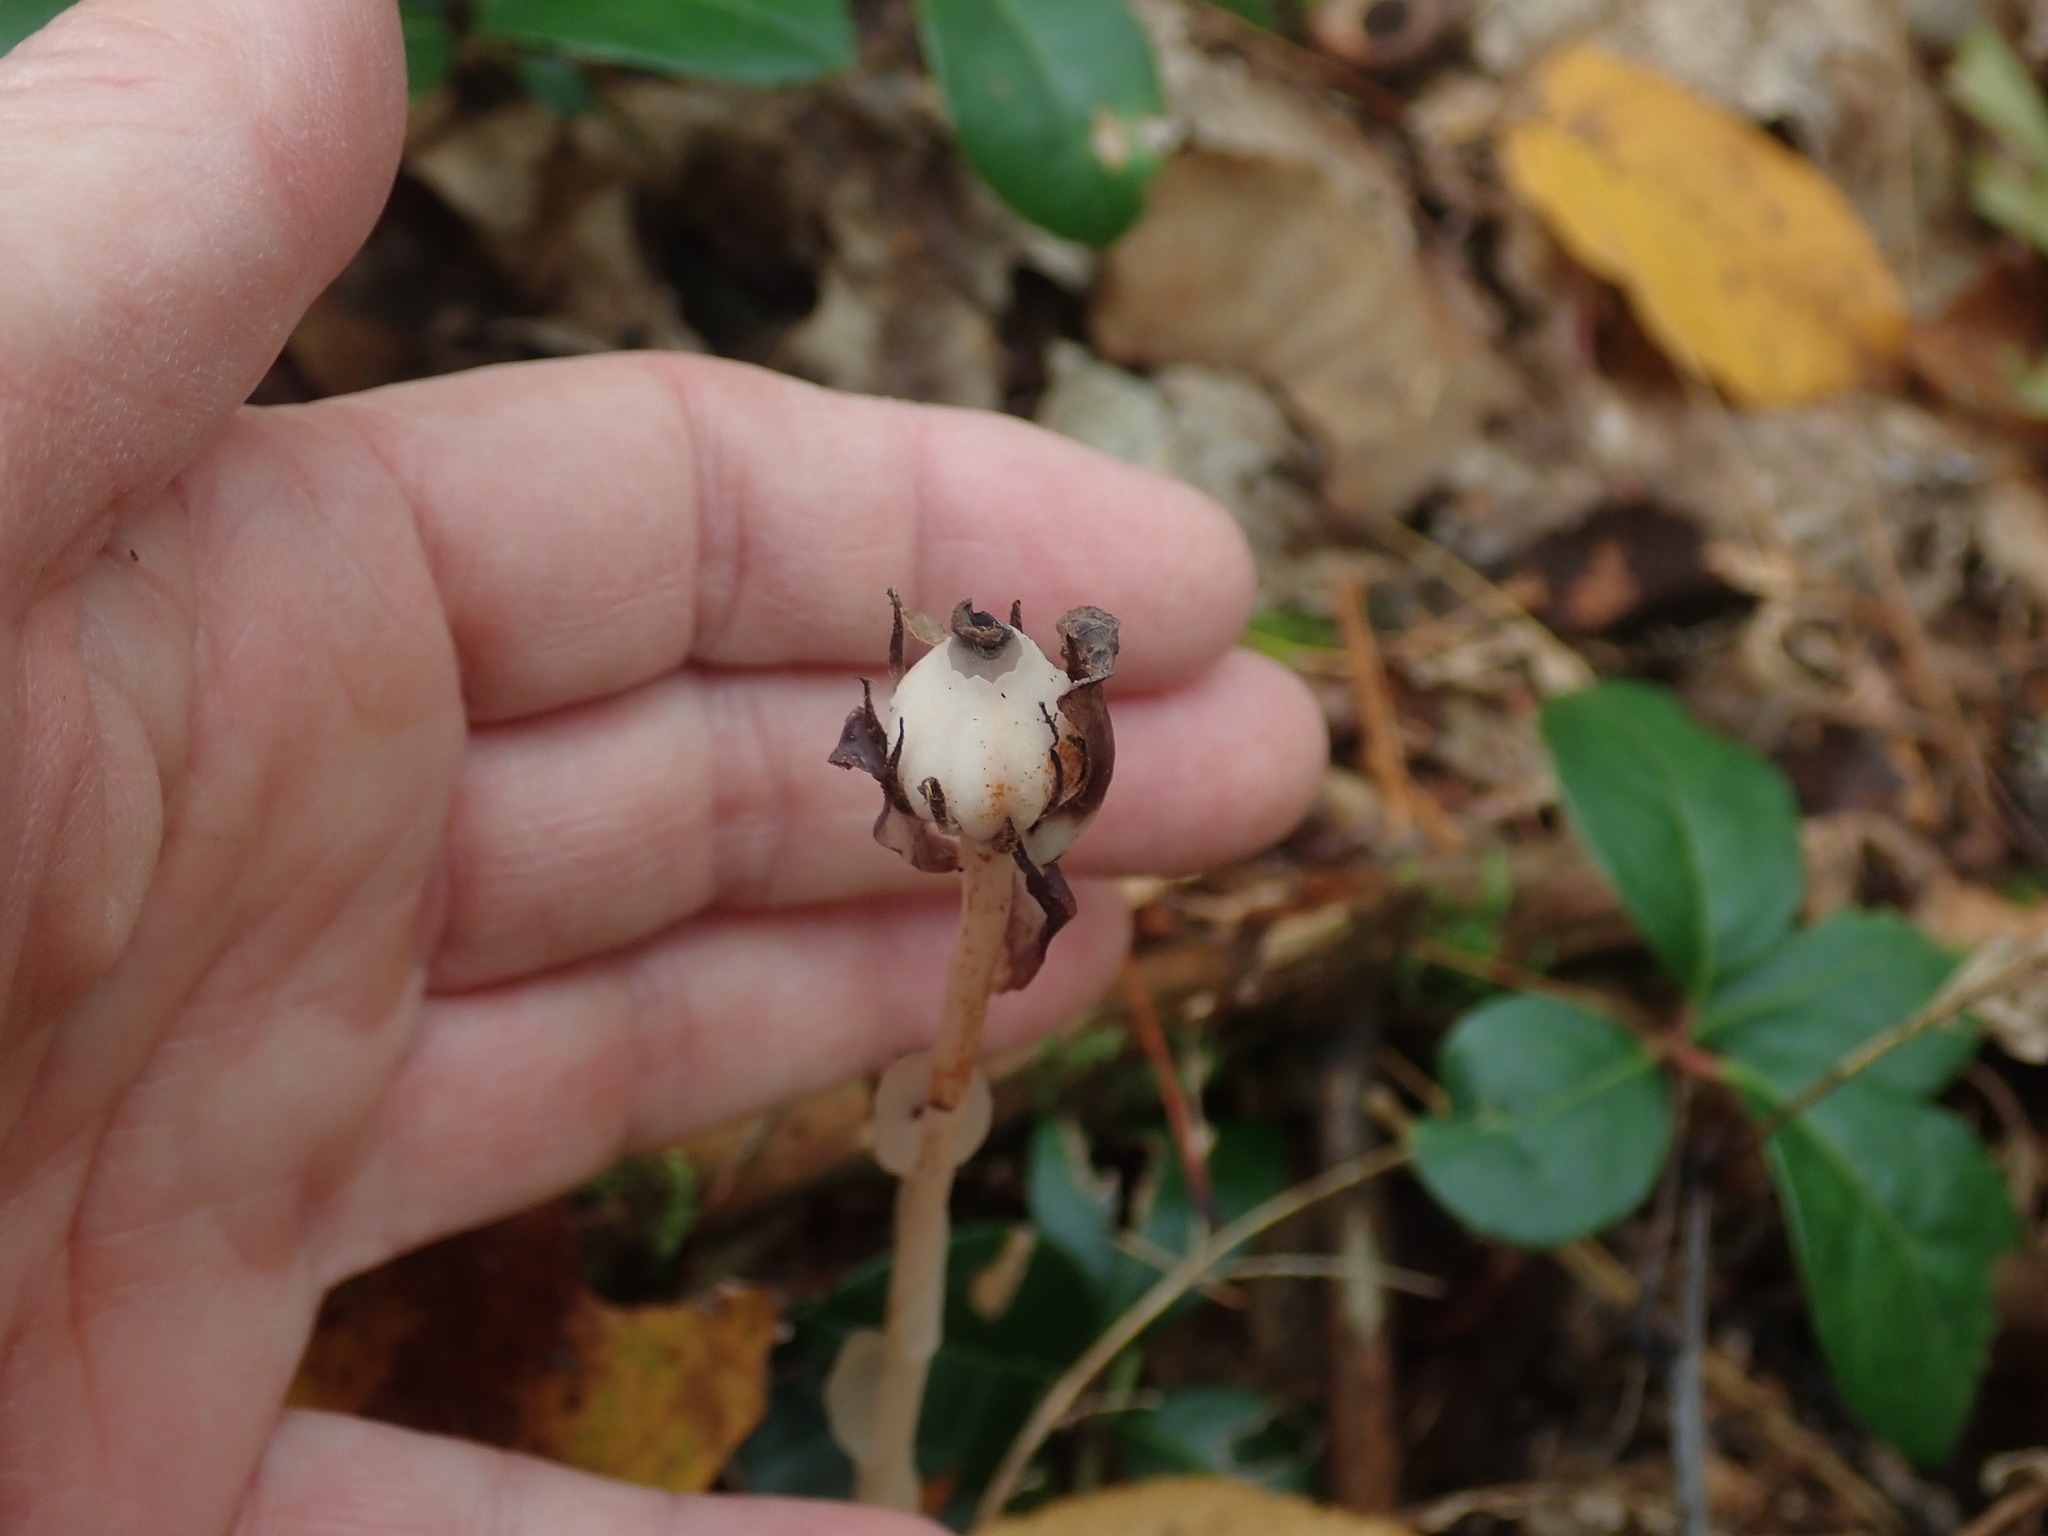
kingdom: Plantae
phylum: Tracheophyta
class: Magnoliopsida
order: Ericales
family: Ericaceae
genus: Monotropa
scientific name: Monotropa uniflora
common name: Convulsion root
